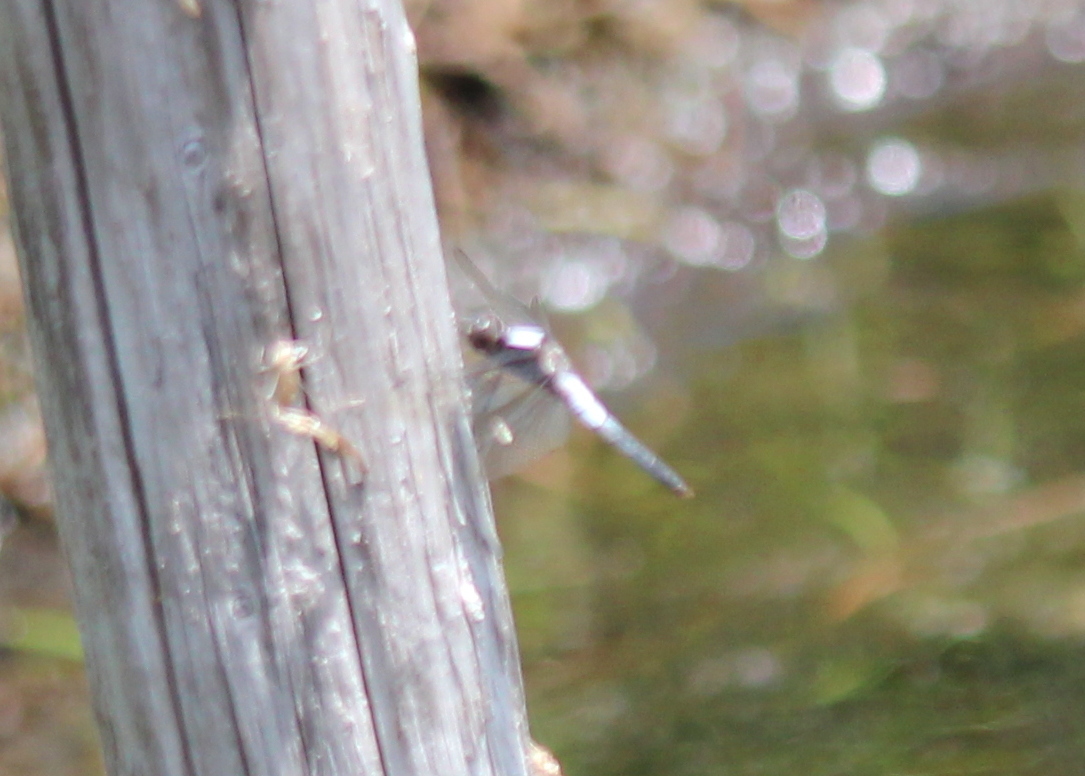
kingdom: Animalia
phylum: Arthropoda
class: Insecta
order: Odonata
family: Libellulidae
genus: Ladona
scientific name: Ladona julia
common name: Chalk-fronted corporal
